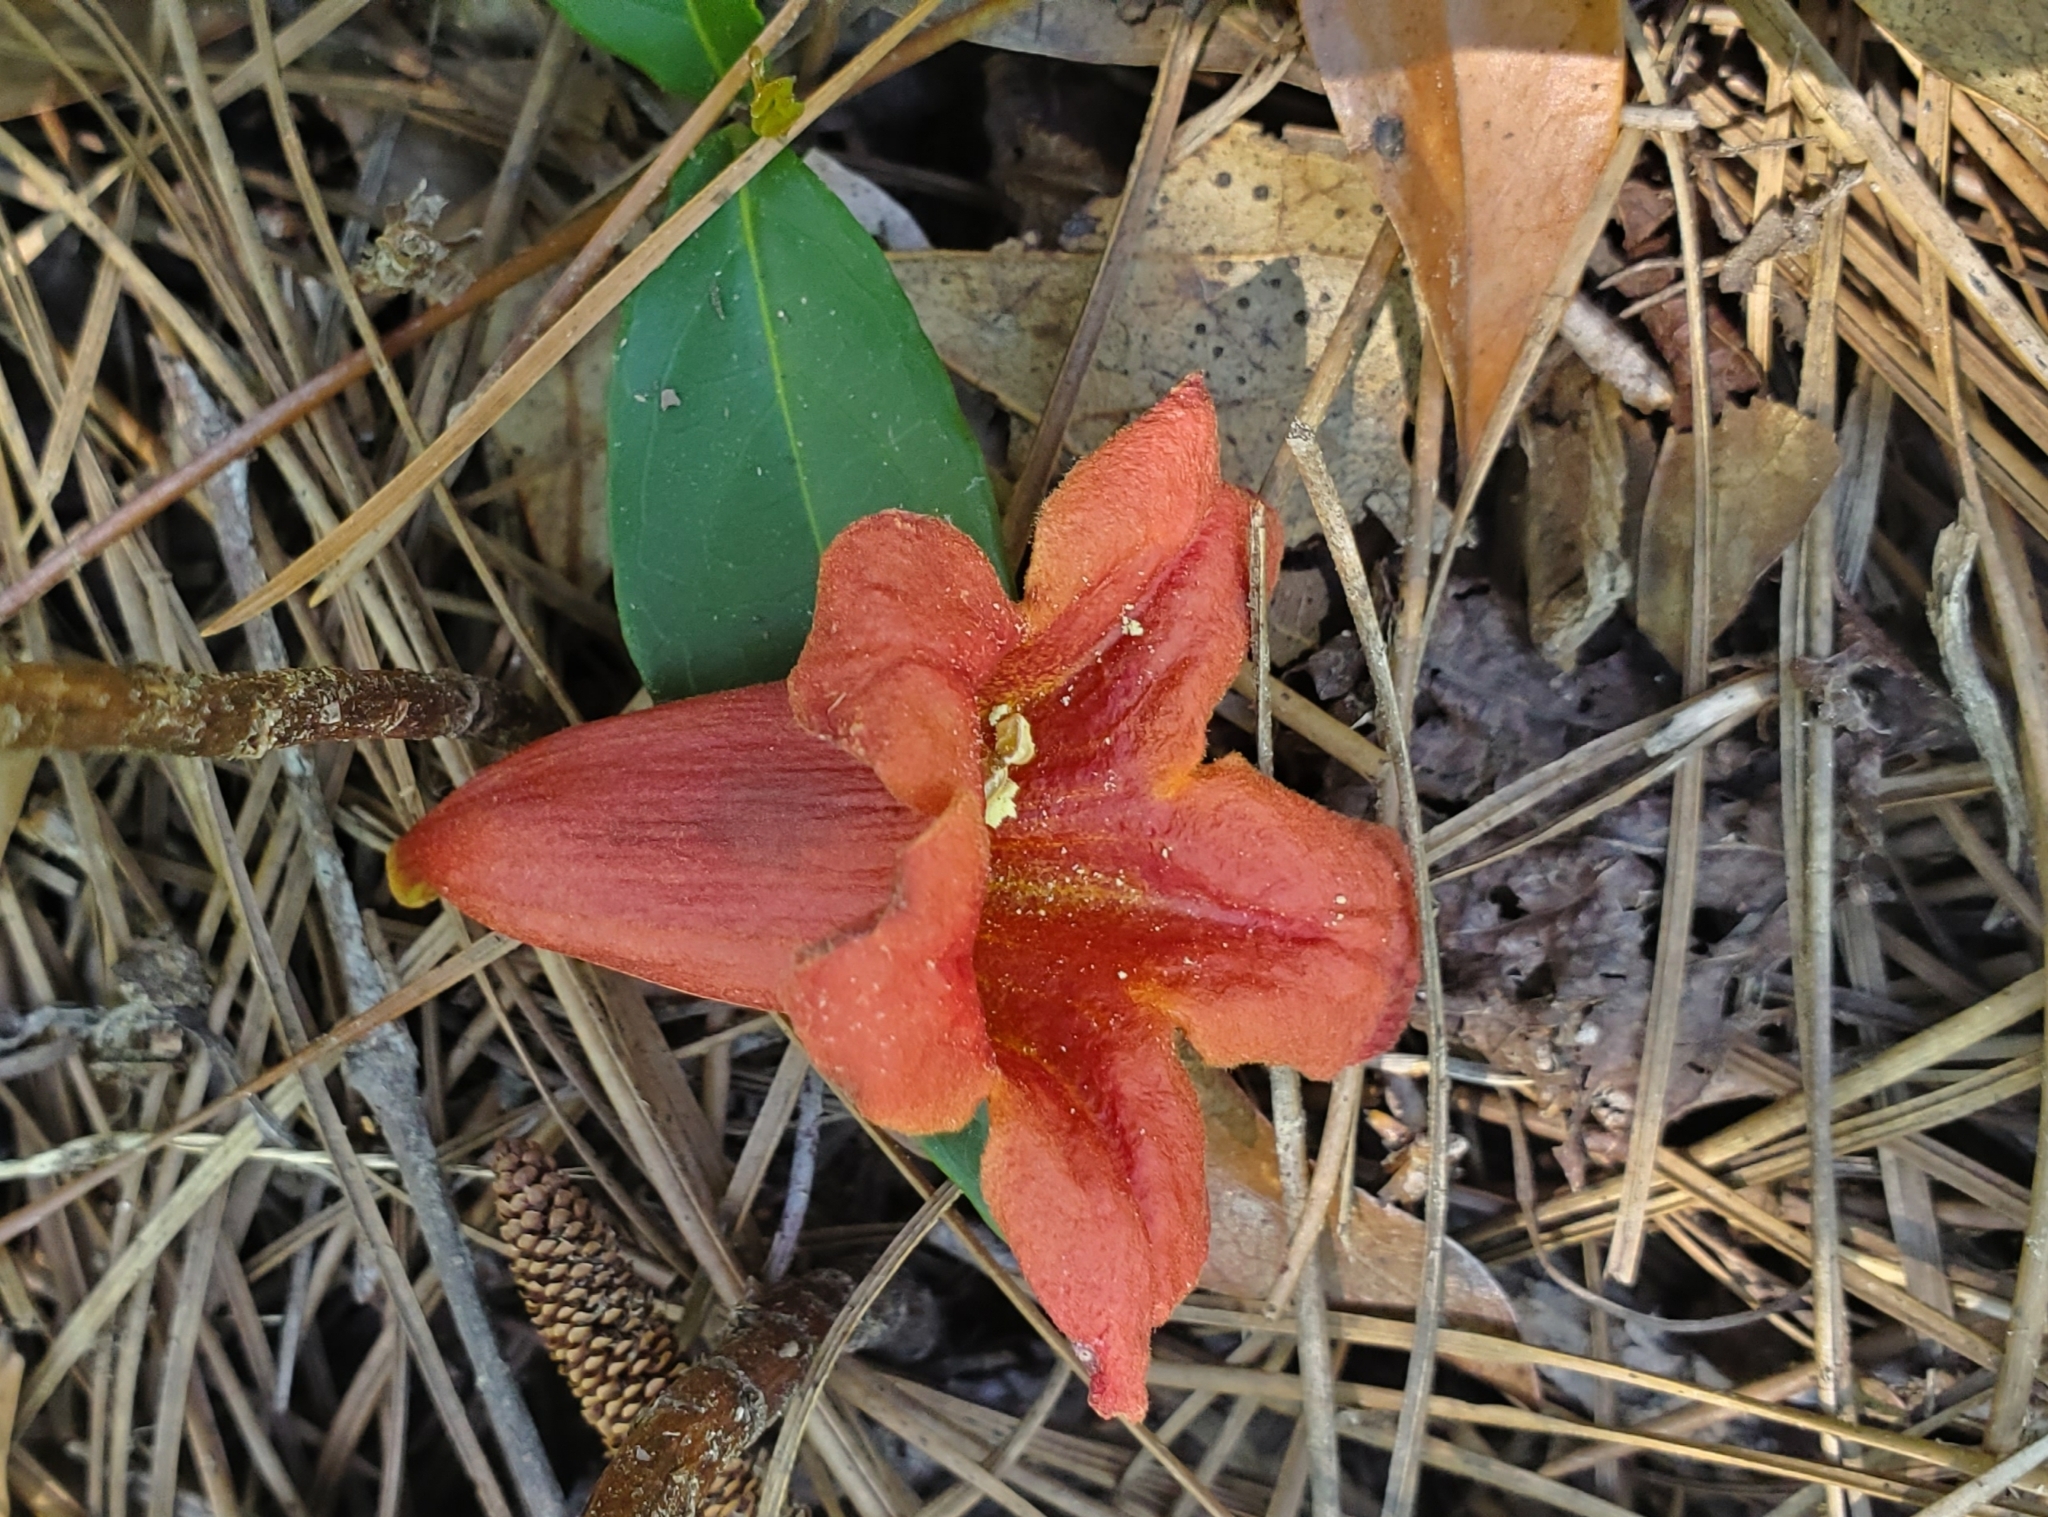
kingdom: Plantae
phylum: Tracheophyta
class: Magnoliopsida
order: Lamiales
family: Bignoniaceae
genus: Bignonia
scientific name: Bignonia capreolata
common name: Crossvine
